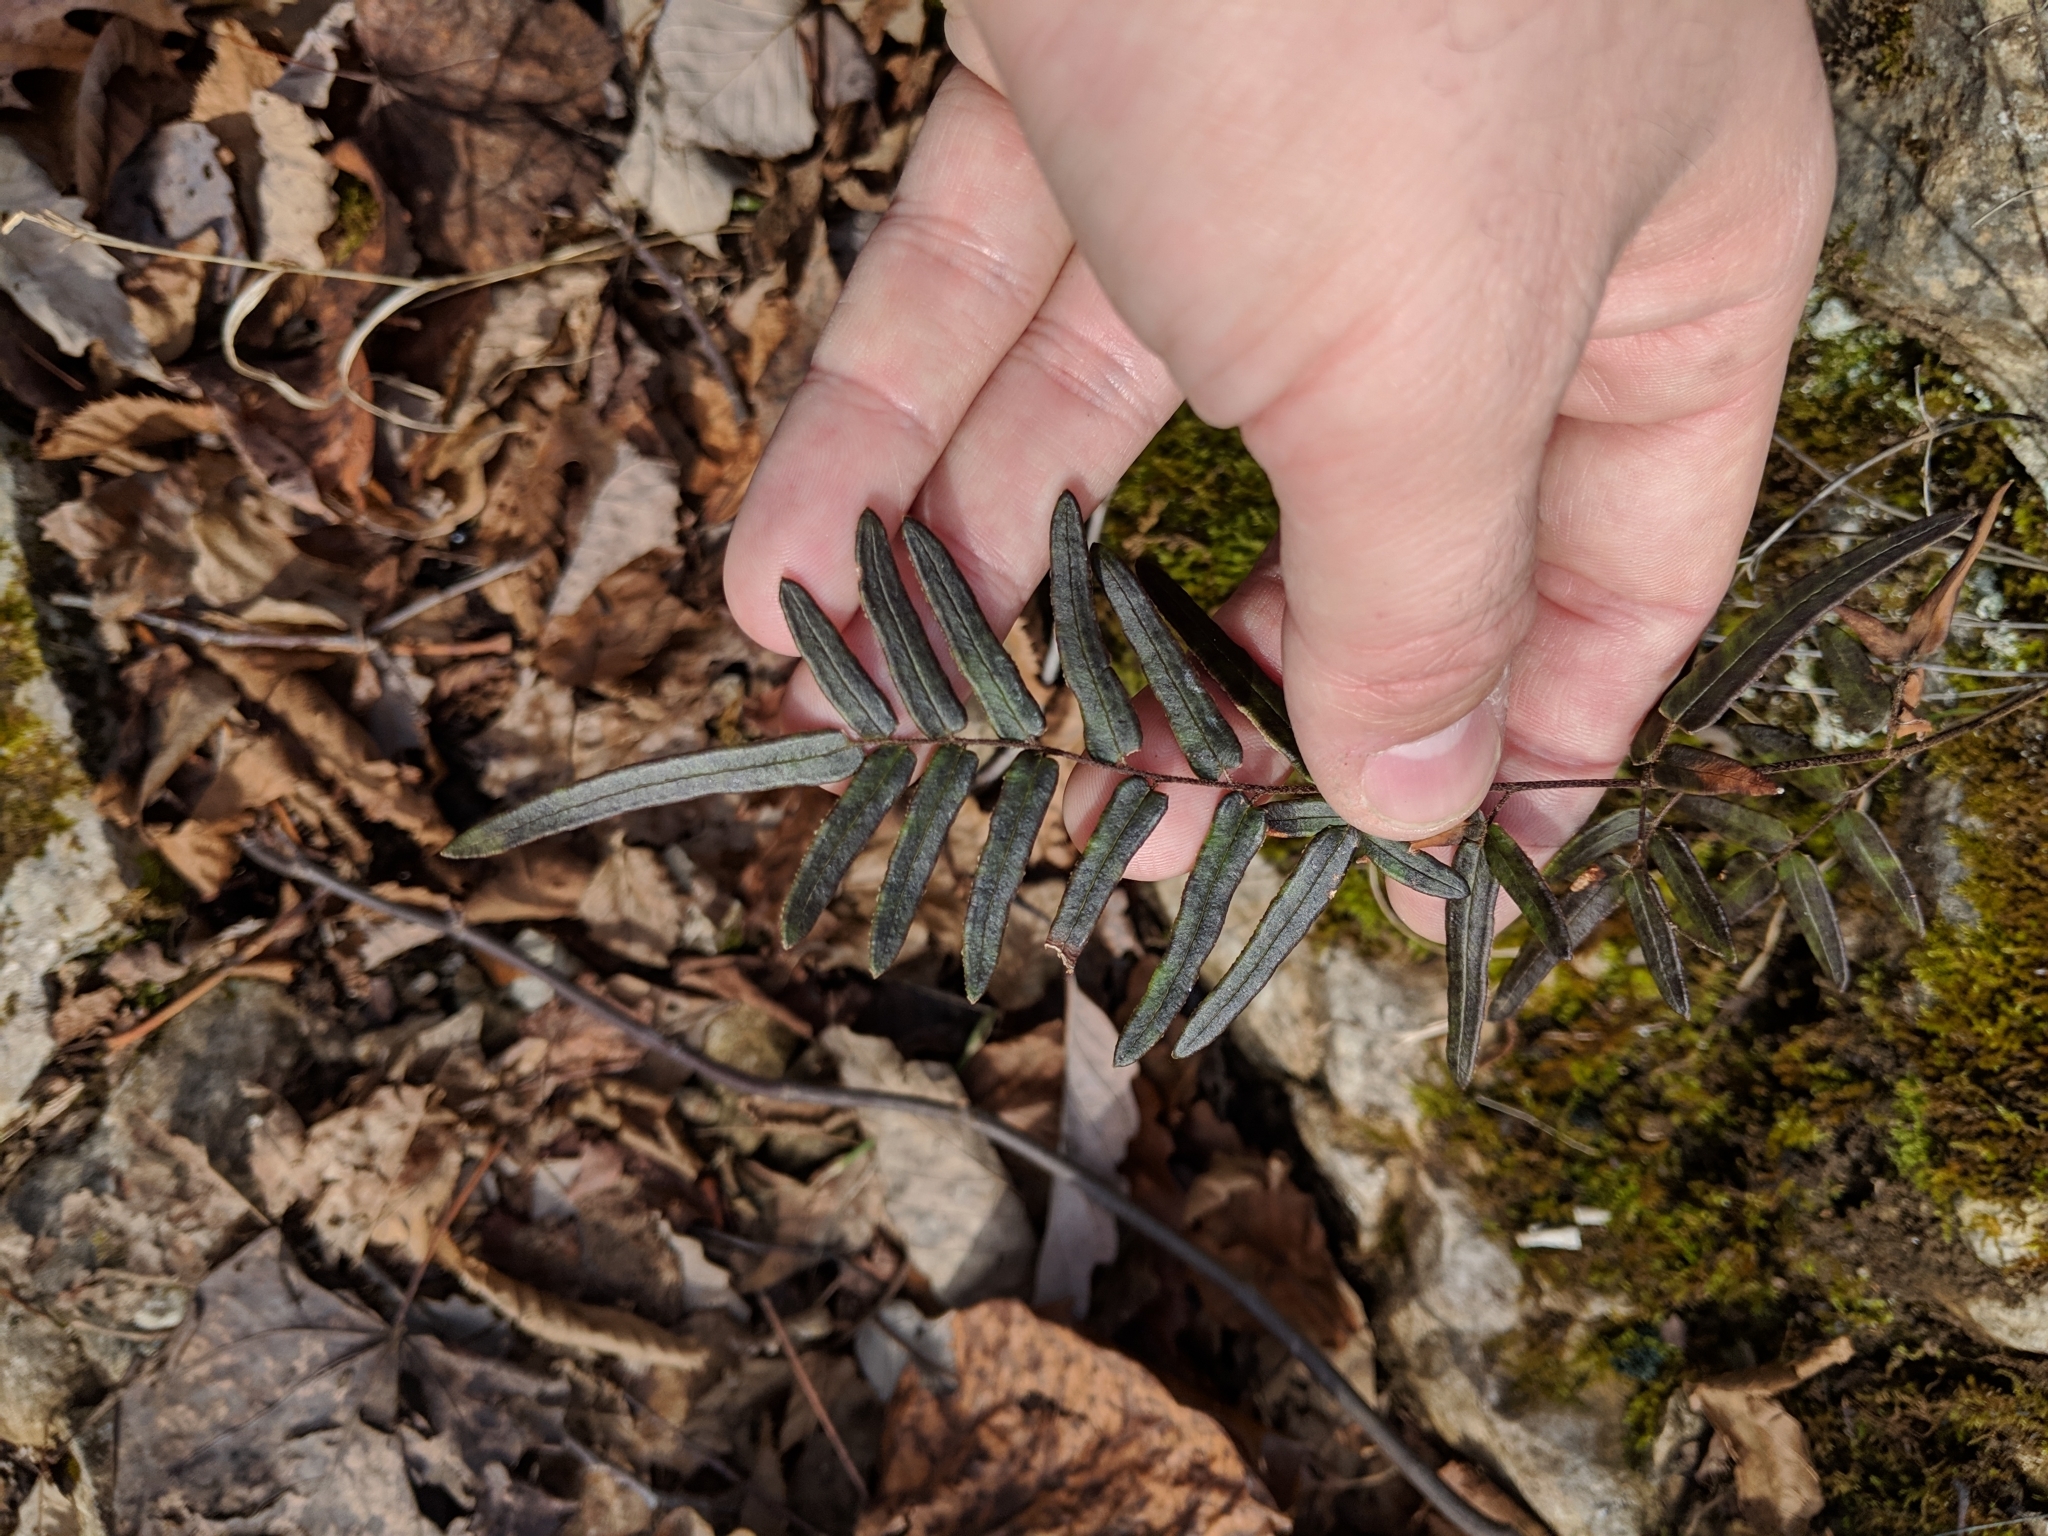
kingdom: Plantae
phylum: Tracheophyta
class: Polypodiopsida
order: Polypodiales
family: Pteridaceae
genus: Pellaea
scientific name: Pellaea atropurpurea
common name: Hairy cliffbrake
